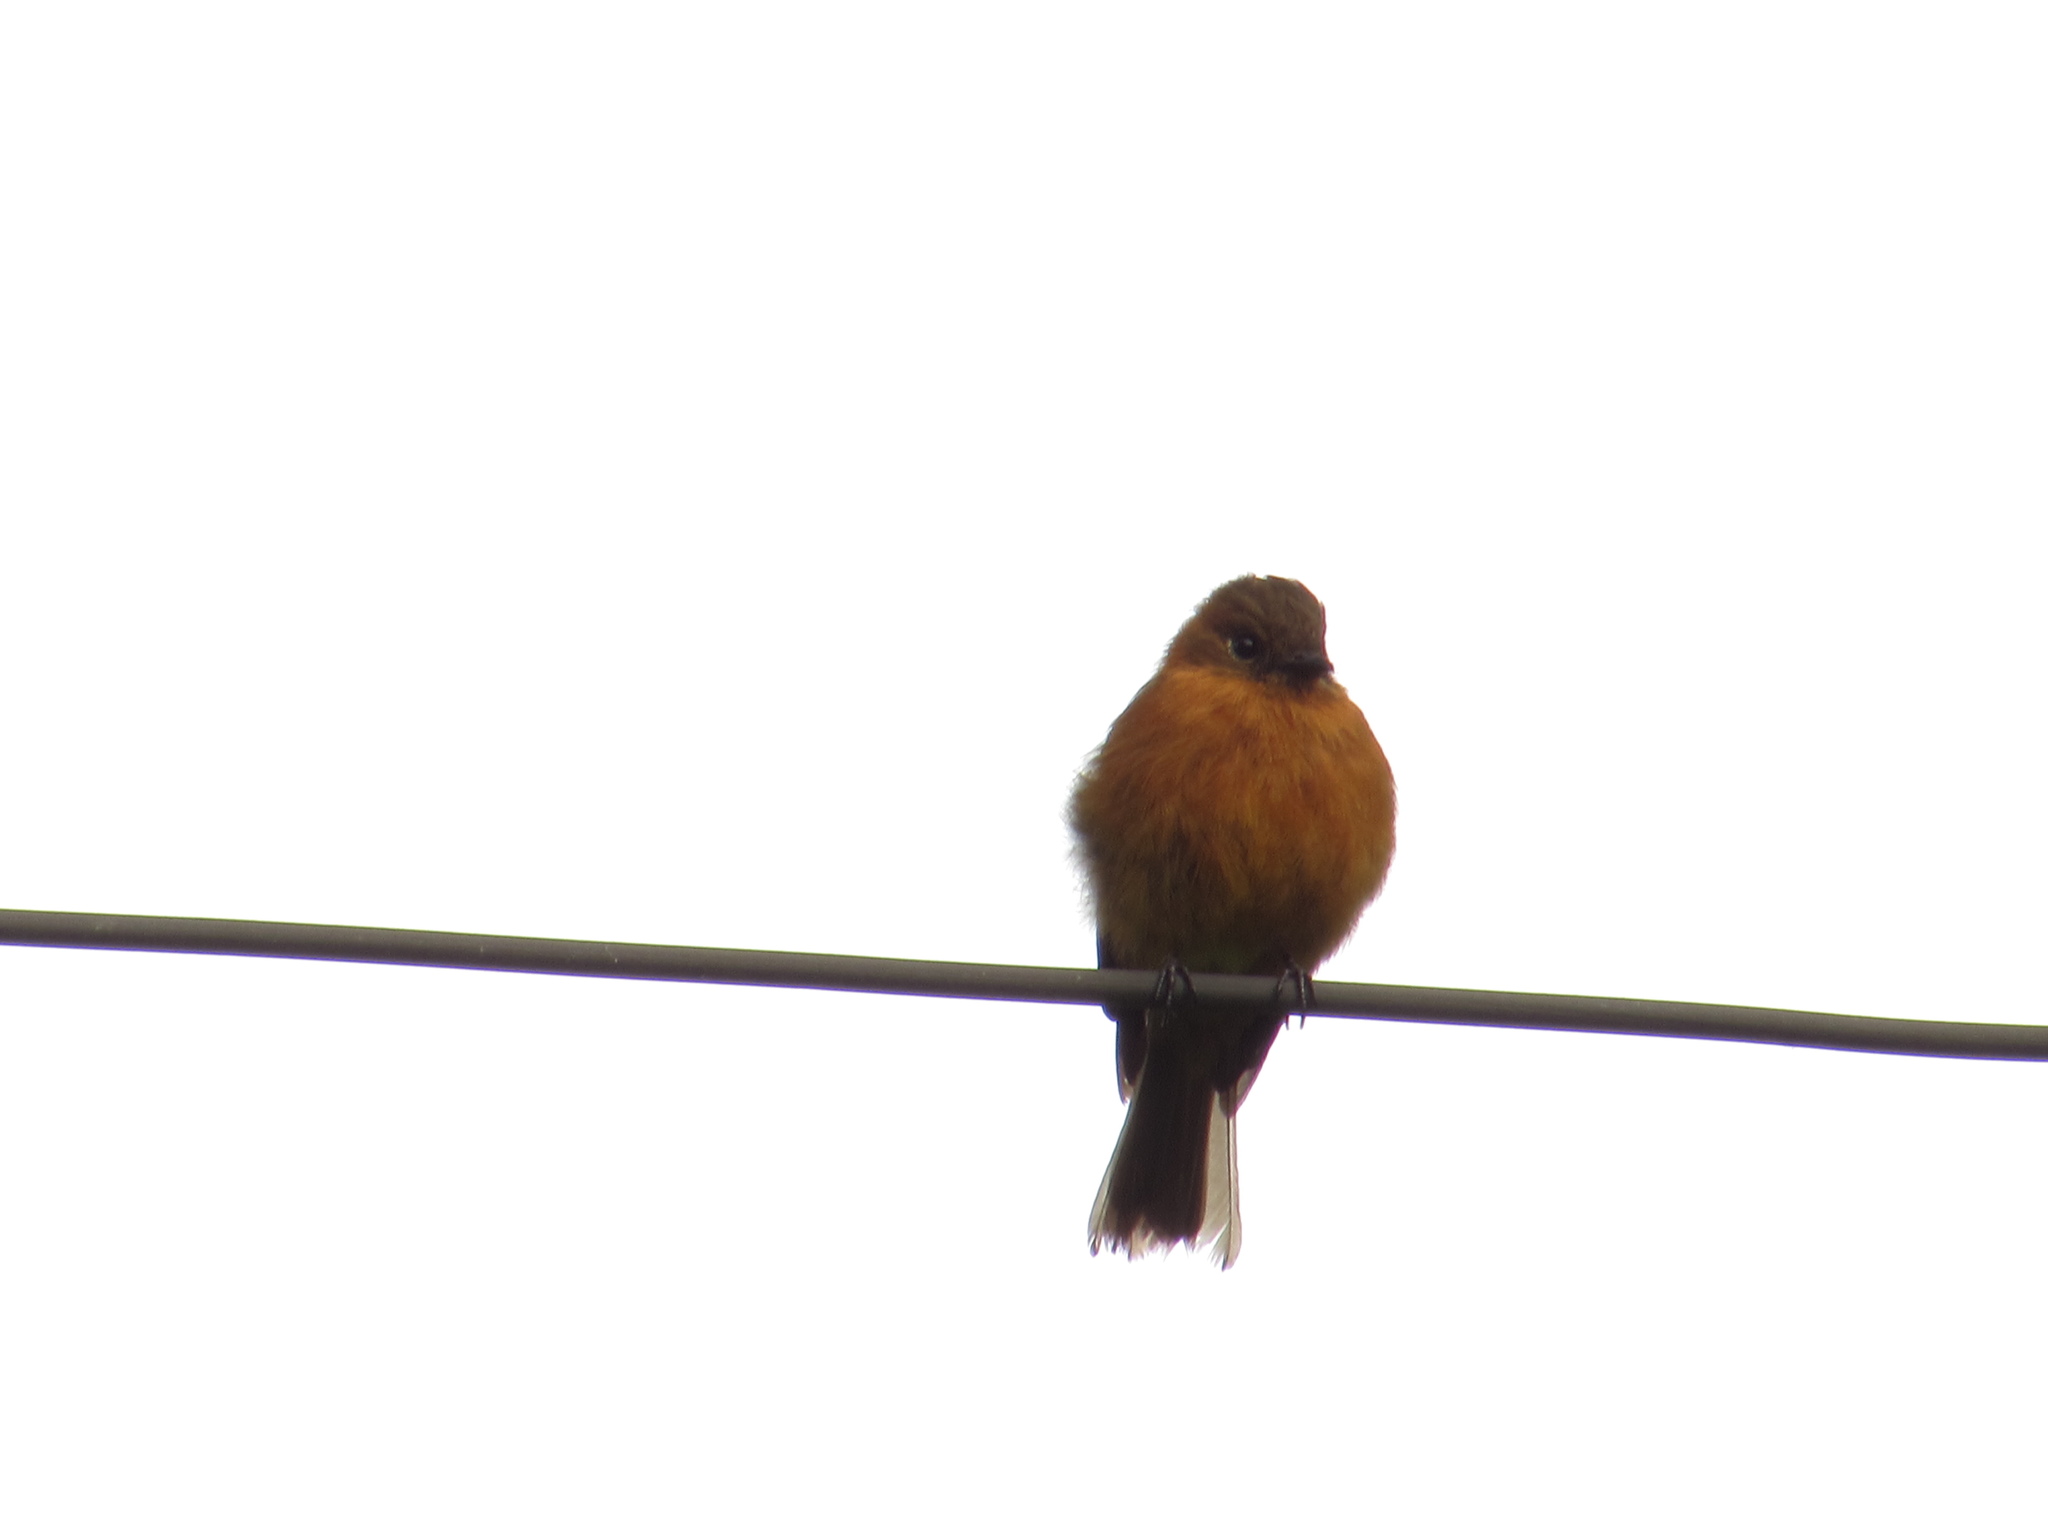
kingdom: Animalia
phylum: Chordata
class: Aves
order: Passeriformes
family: Tyrannidae
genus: Pyrrhomyias
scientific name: Pyrrhomyias cinnamomeus
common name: Cinnamon flycatcher
